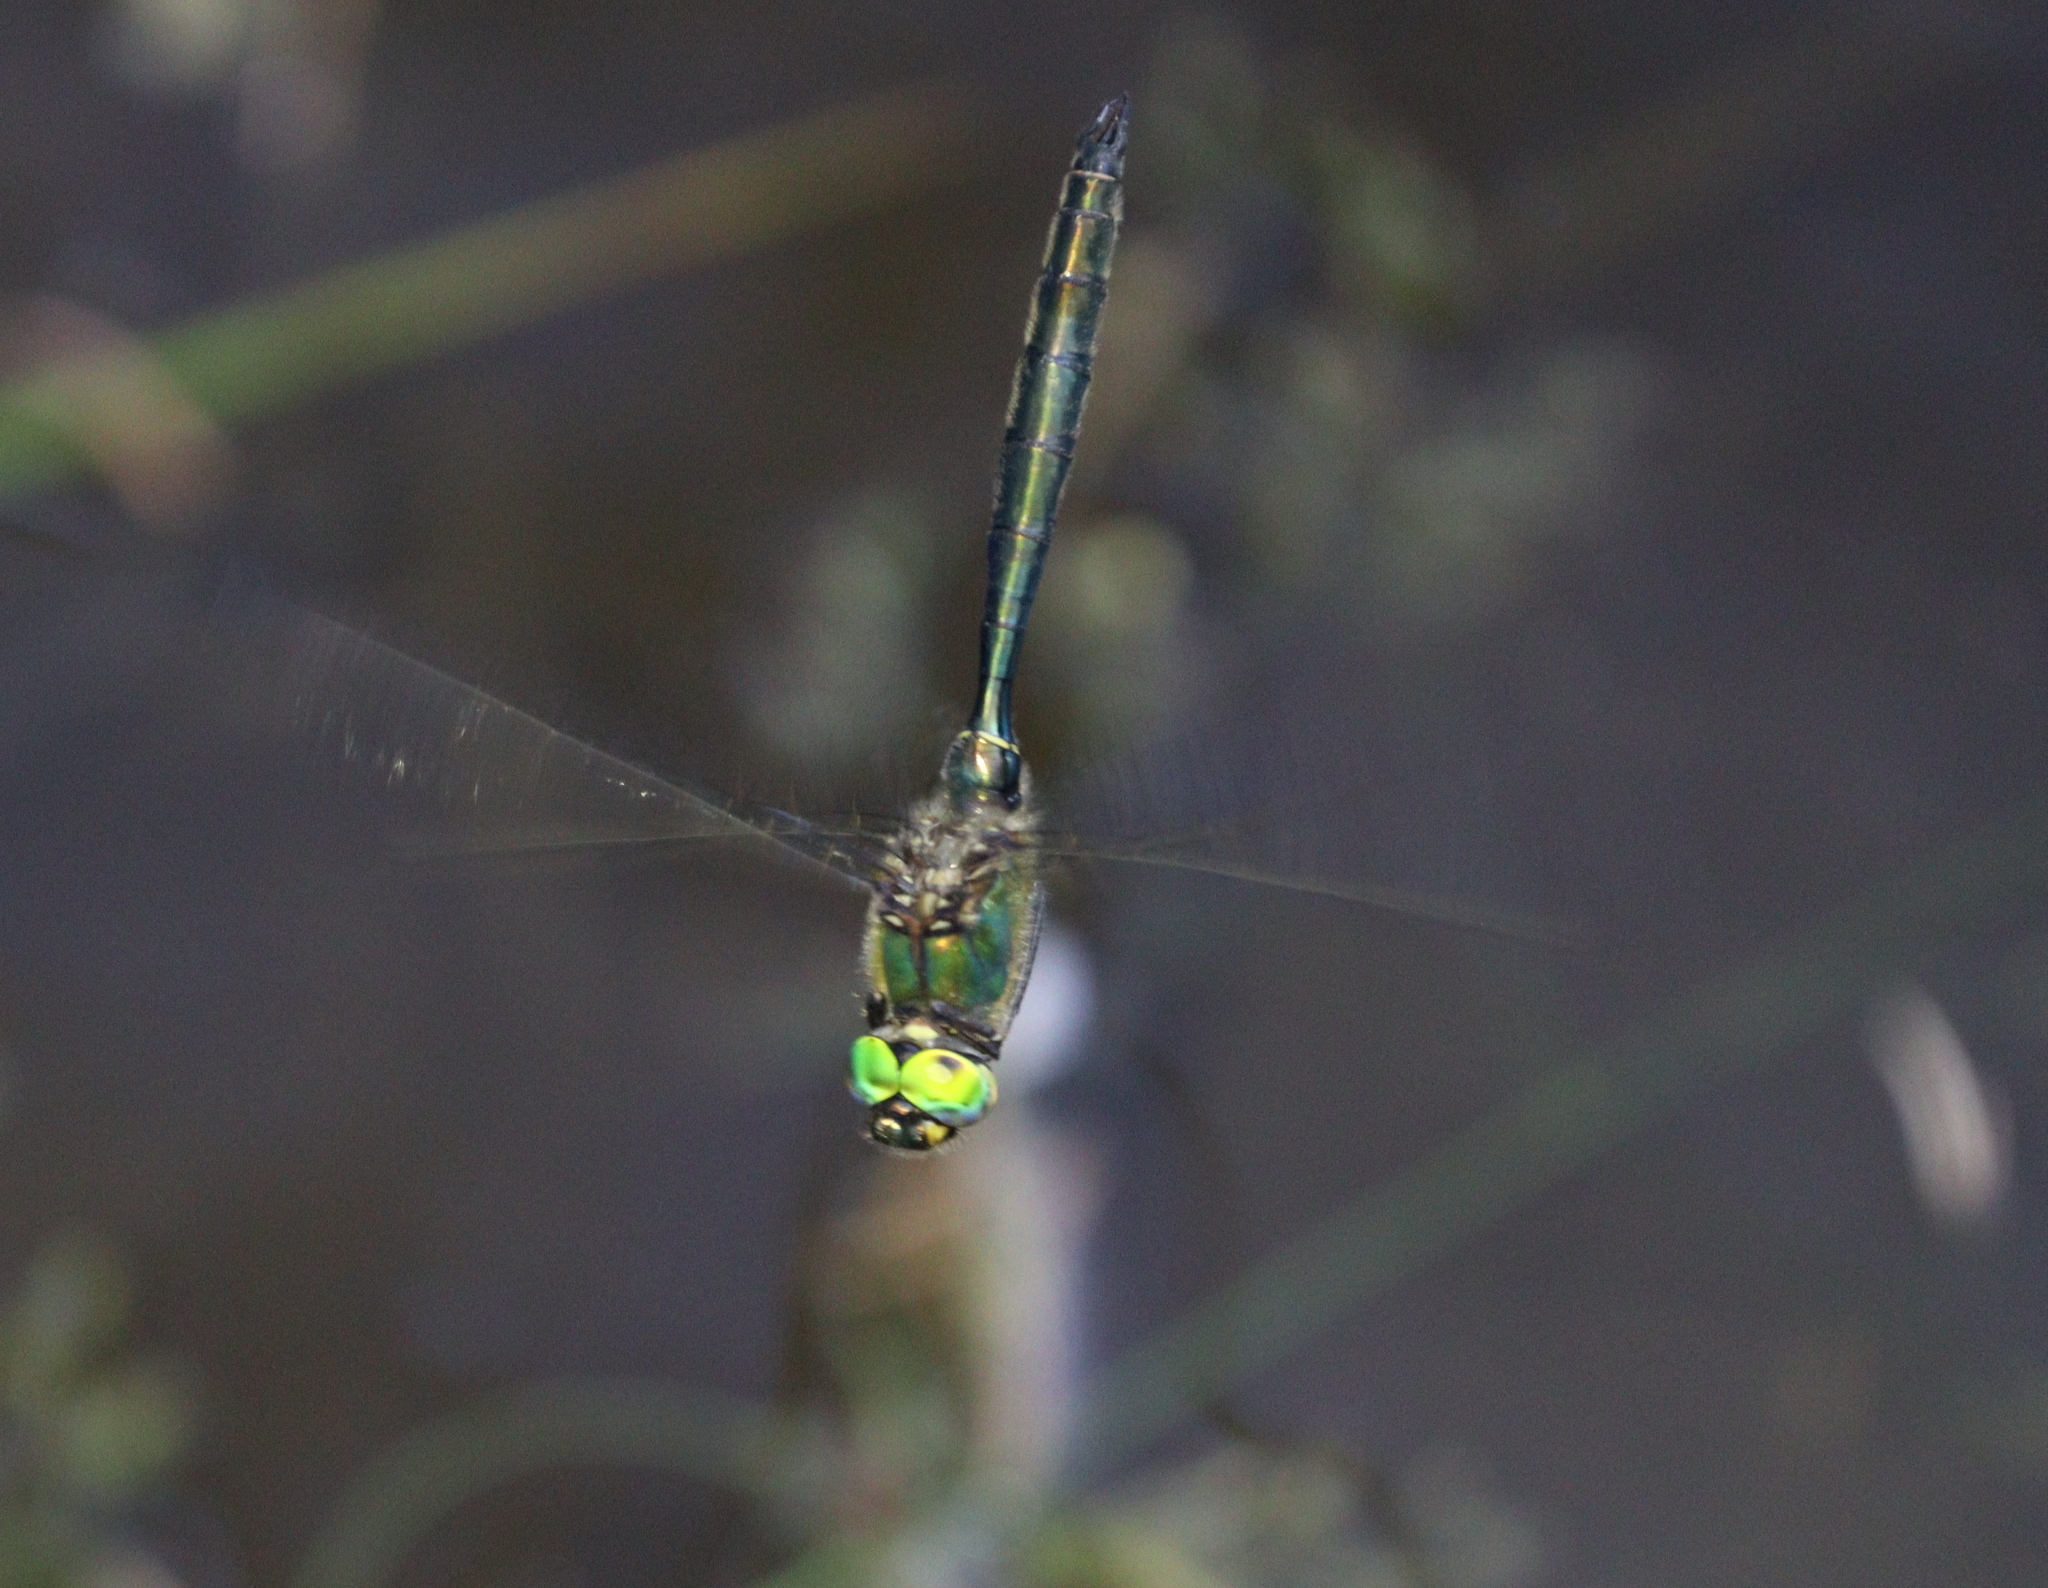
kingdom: Animalia
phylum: Arthropoda
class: Insecta
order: Odonata
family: Corduliidae
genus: Somatochlora
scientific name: Somatochlora metallica
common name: Brilliant emerald
